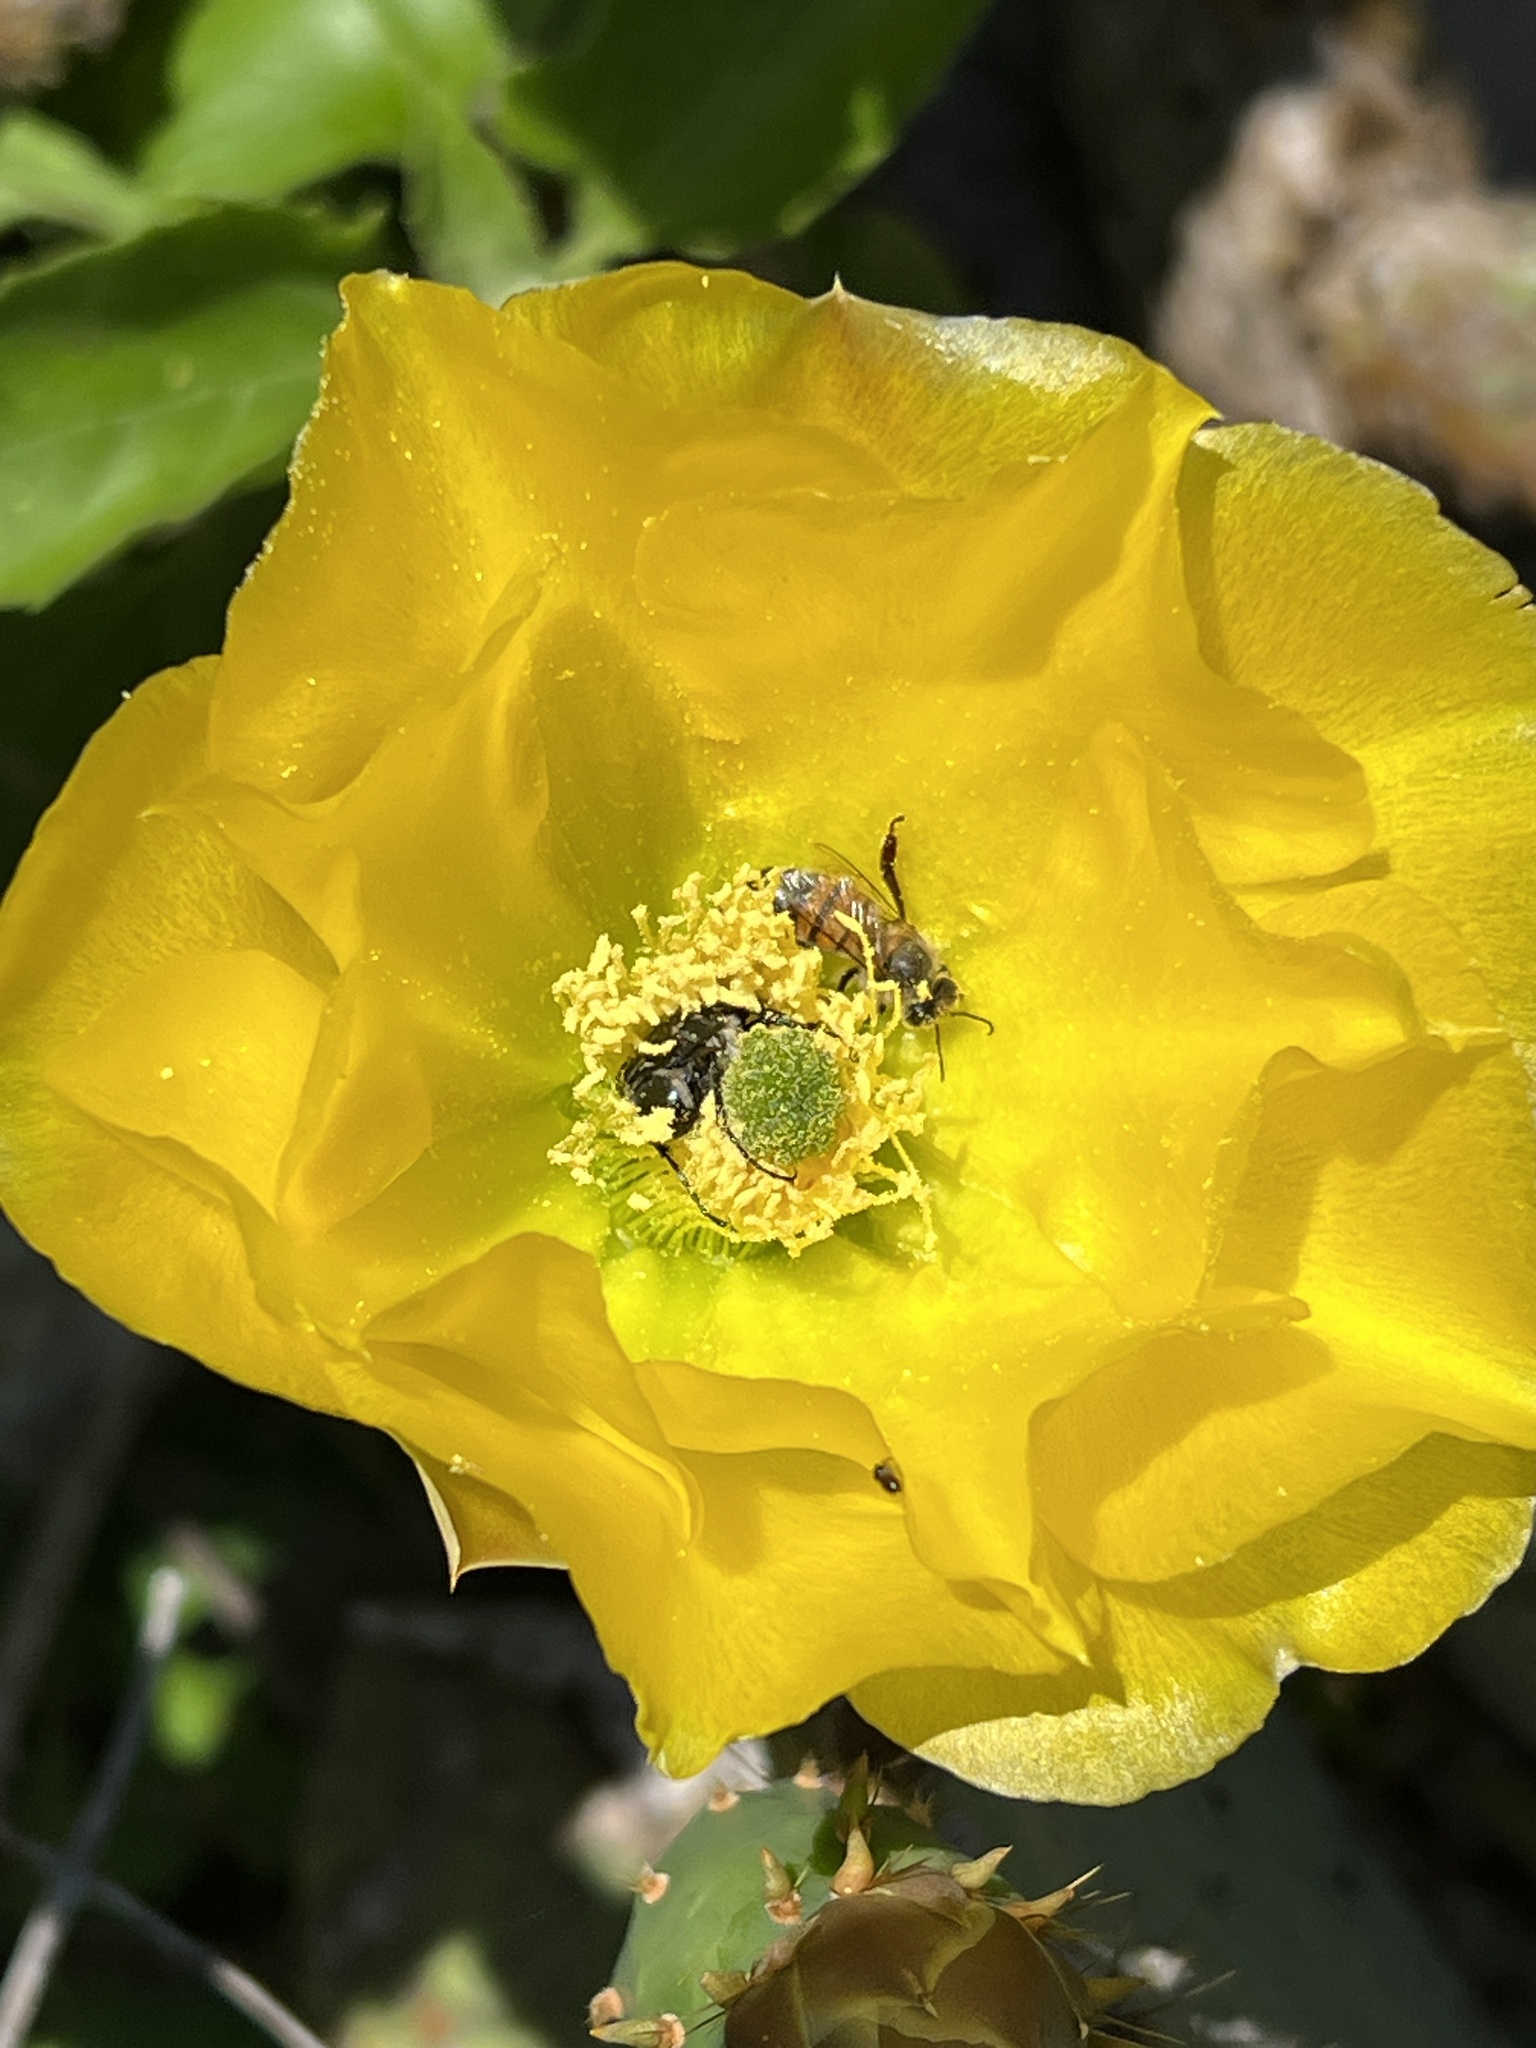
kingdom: Animalia
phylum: Arthropoda
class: Insecta
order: Hymenoptera
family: Apidae
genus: Apis
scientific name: Apis mellifera
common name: Honey bee
